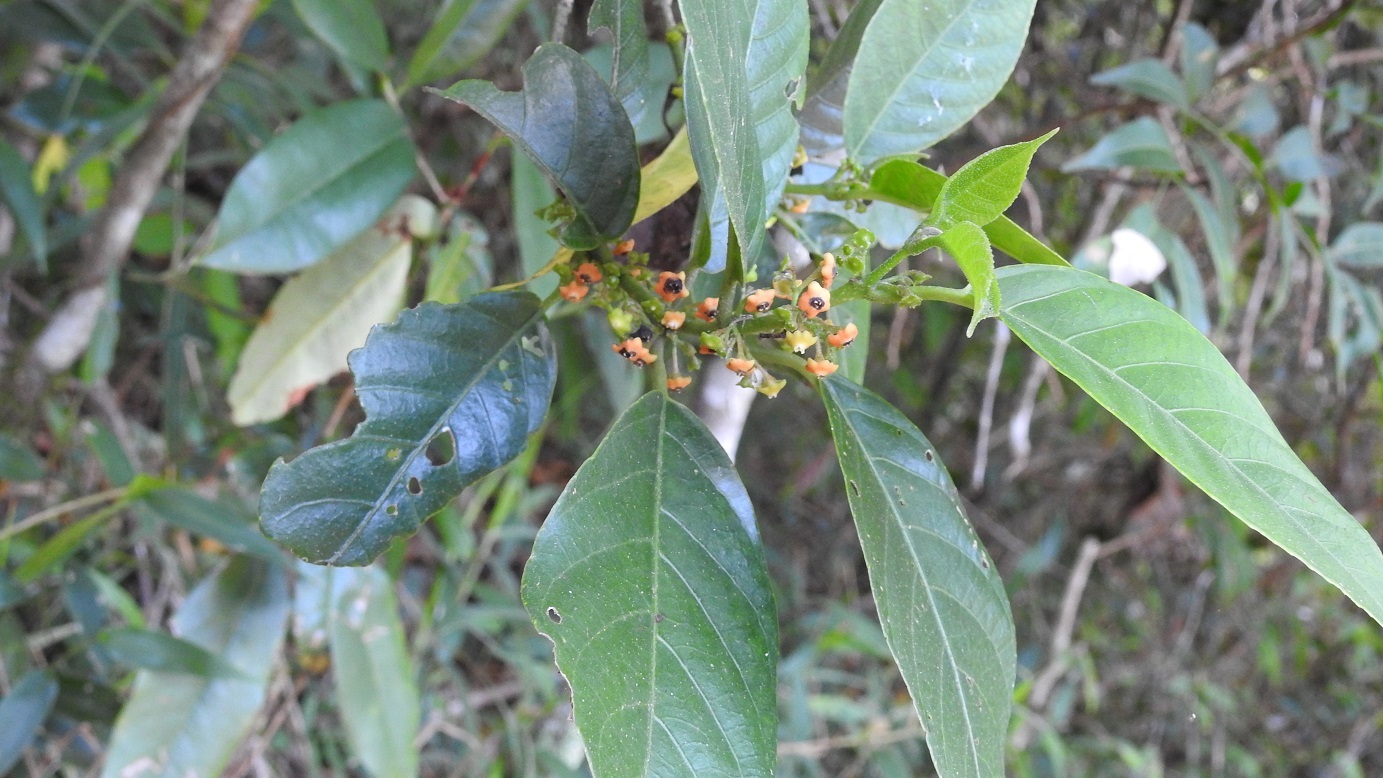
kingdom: Plantae
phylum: Tracheophyta
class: Magnoliopsida
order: Laurales
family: Siparunaceae
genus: Siparuna
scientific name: Siparuna thecaphora
